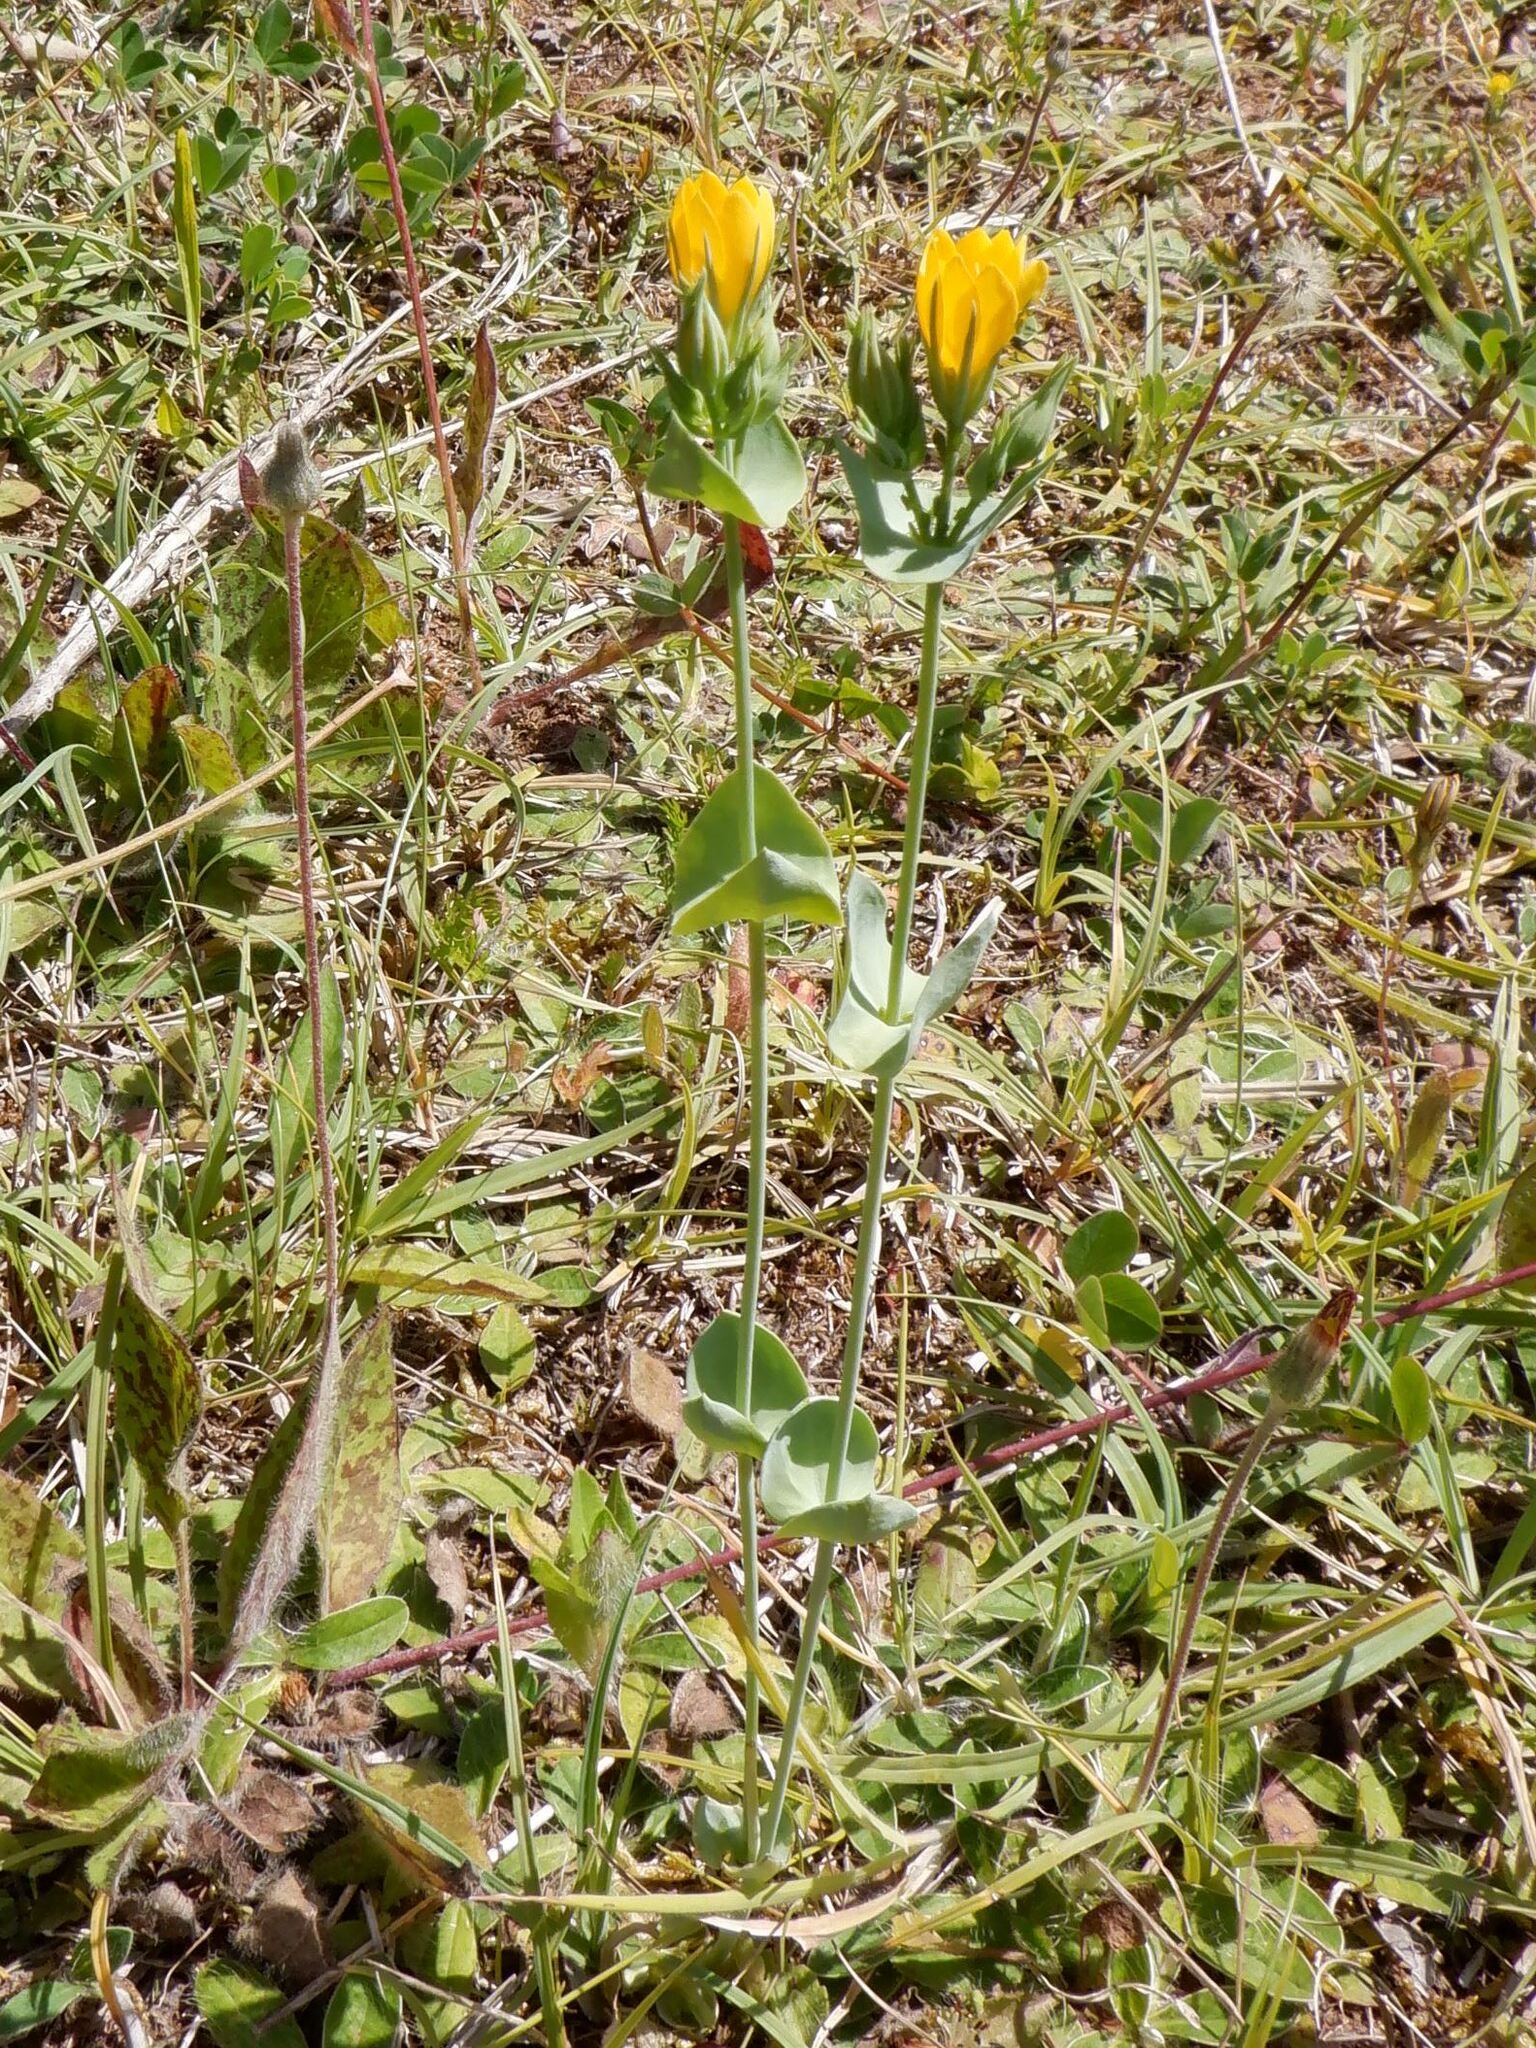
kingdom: Plantae
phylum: Tracheophyta
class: Magnoliopsida
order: Gentianales
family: Gentianaceae
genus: Blackstonia
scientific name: Blackstonia perfoliata
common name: Yellow-wort
